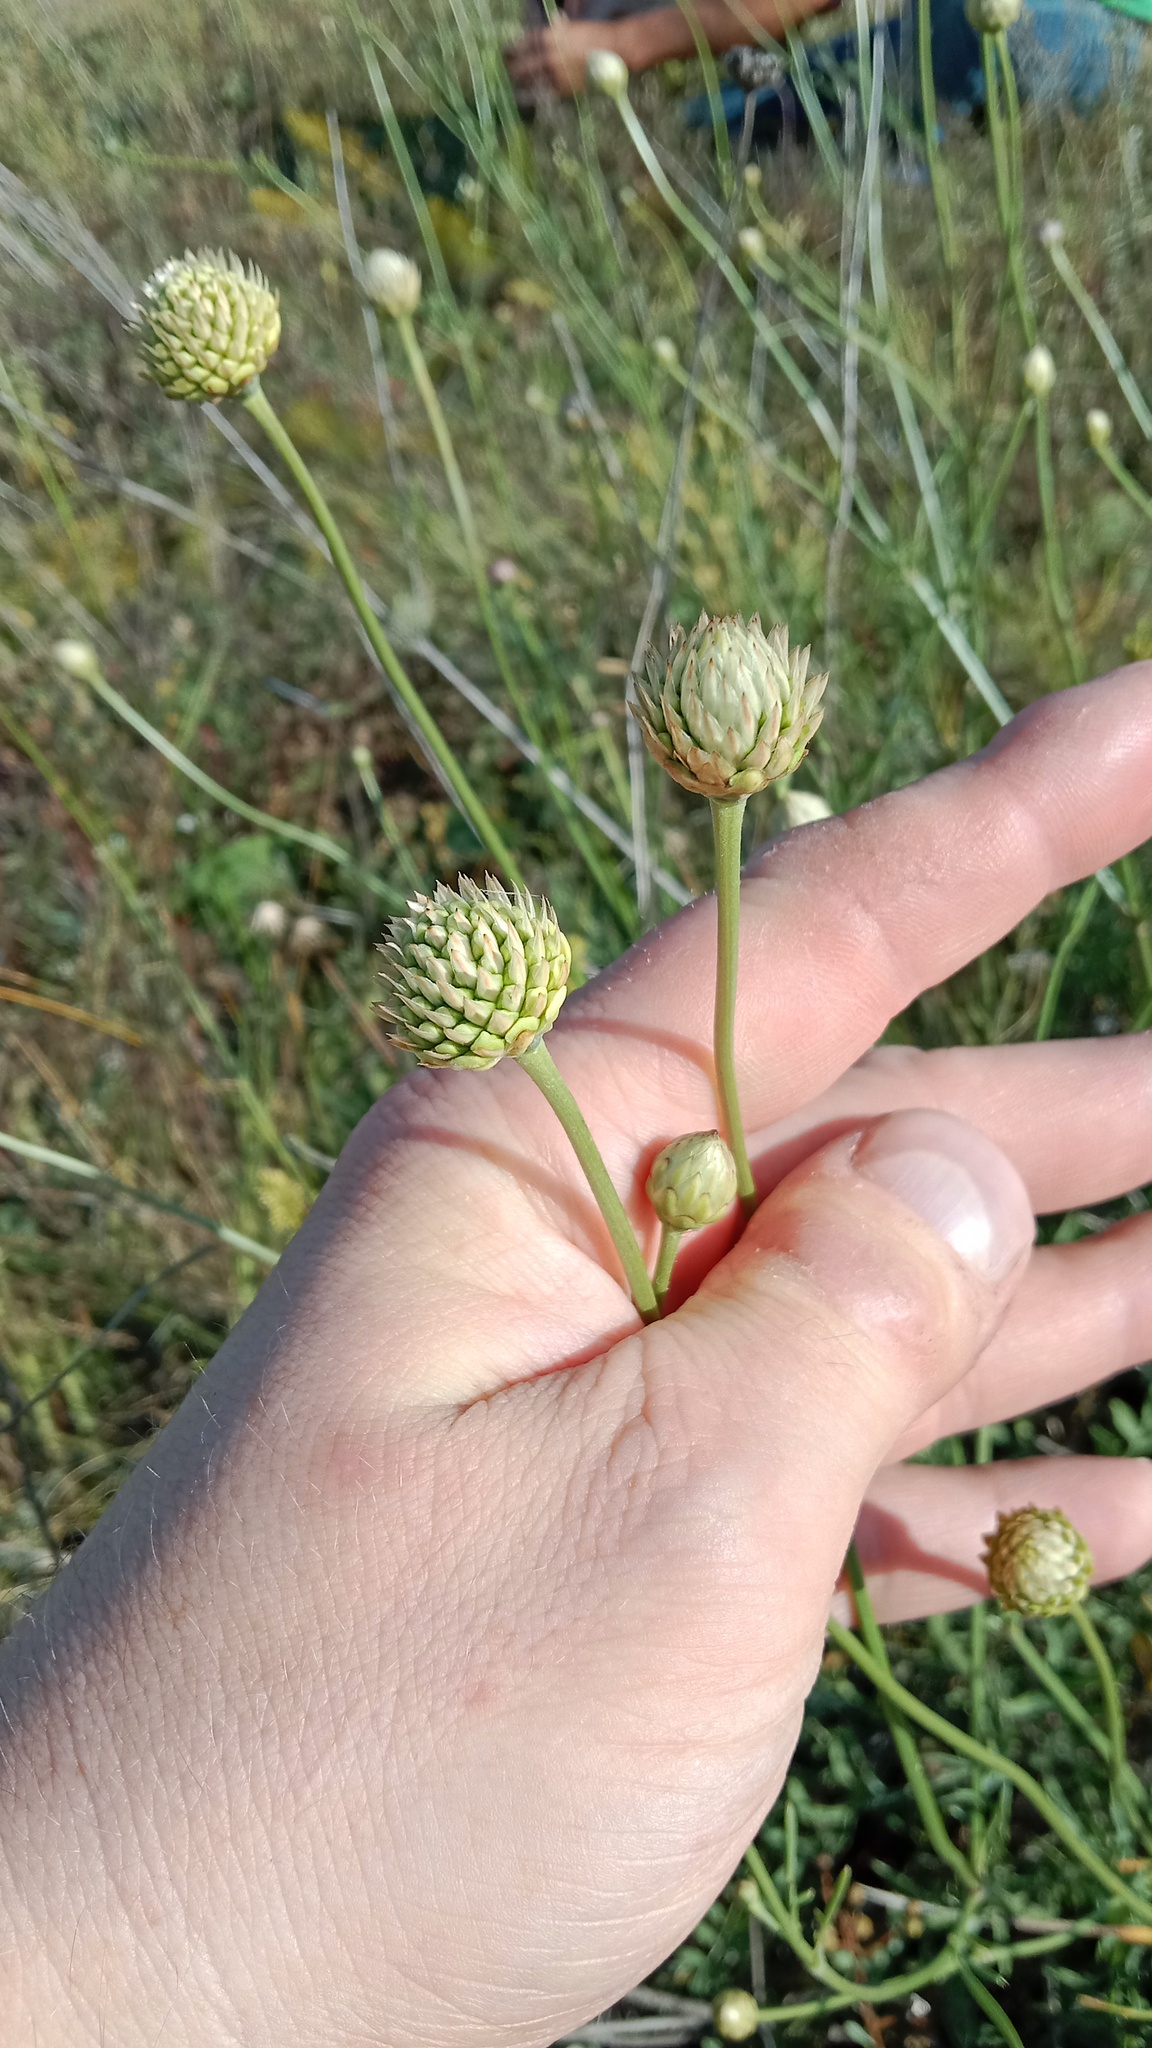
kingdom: Plantae
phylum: Tracheophyta
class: Magnoliopsida
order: Dipsacales
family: Caprifoliaceae
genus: Cephalaria
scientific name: Cephalaria uralensis
